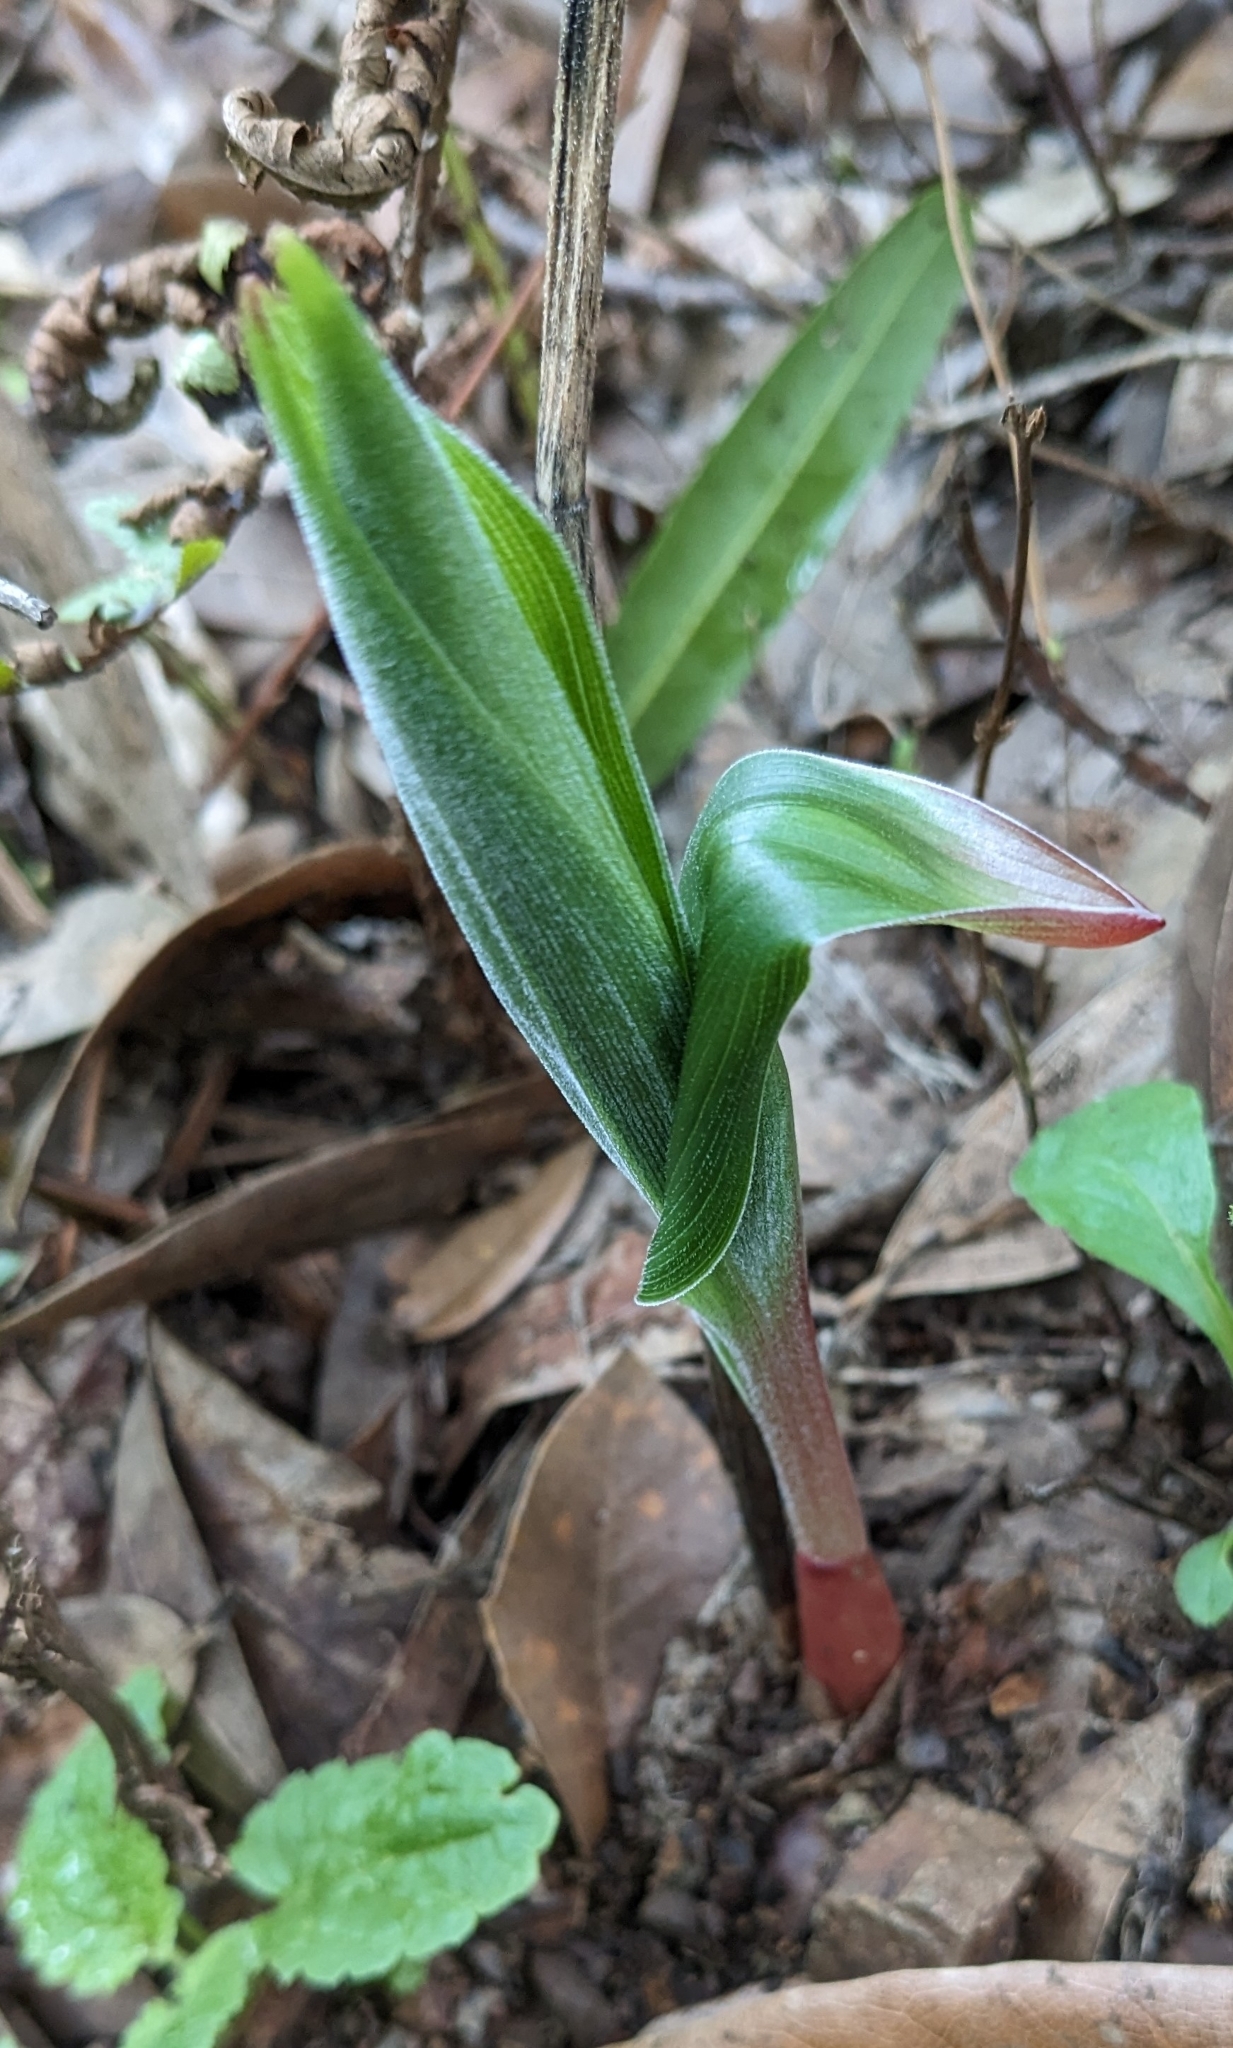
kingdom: Plantae
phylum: Tracheophyta
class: Liliopsida
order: Asparagales
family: Orchidaceae
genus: Epipactis
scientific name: Epipactis helleborine
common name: Broad-leaved helleborine
